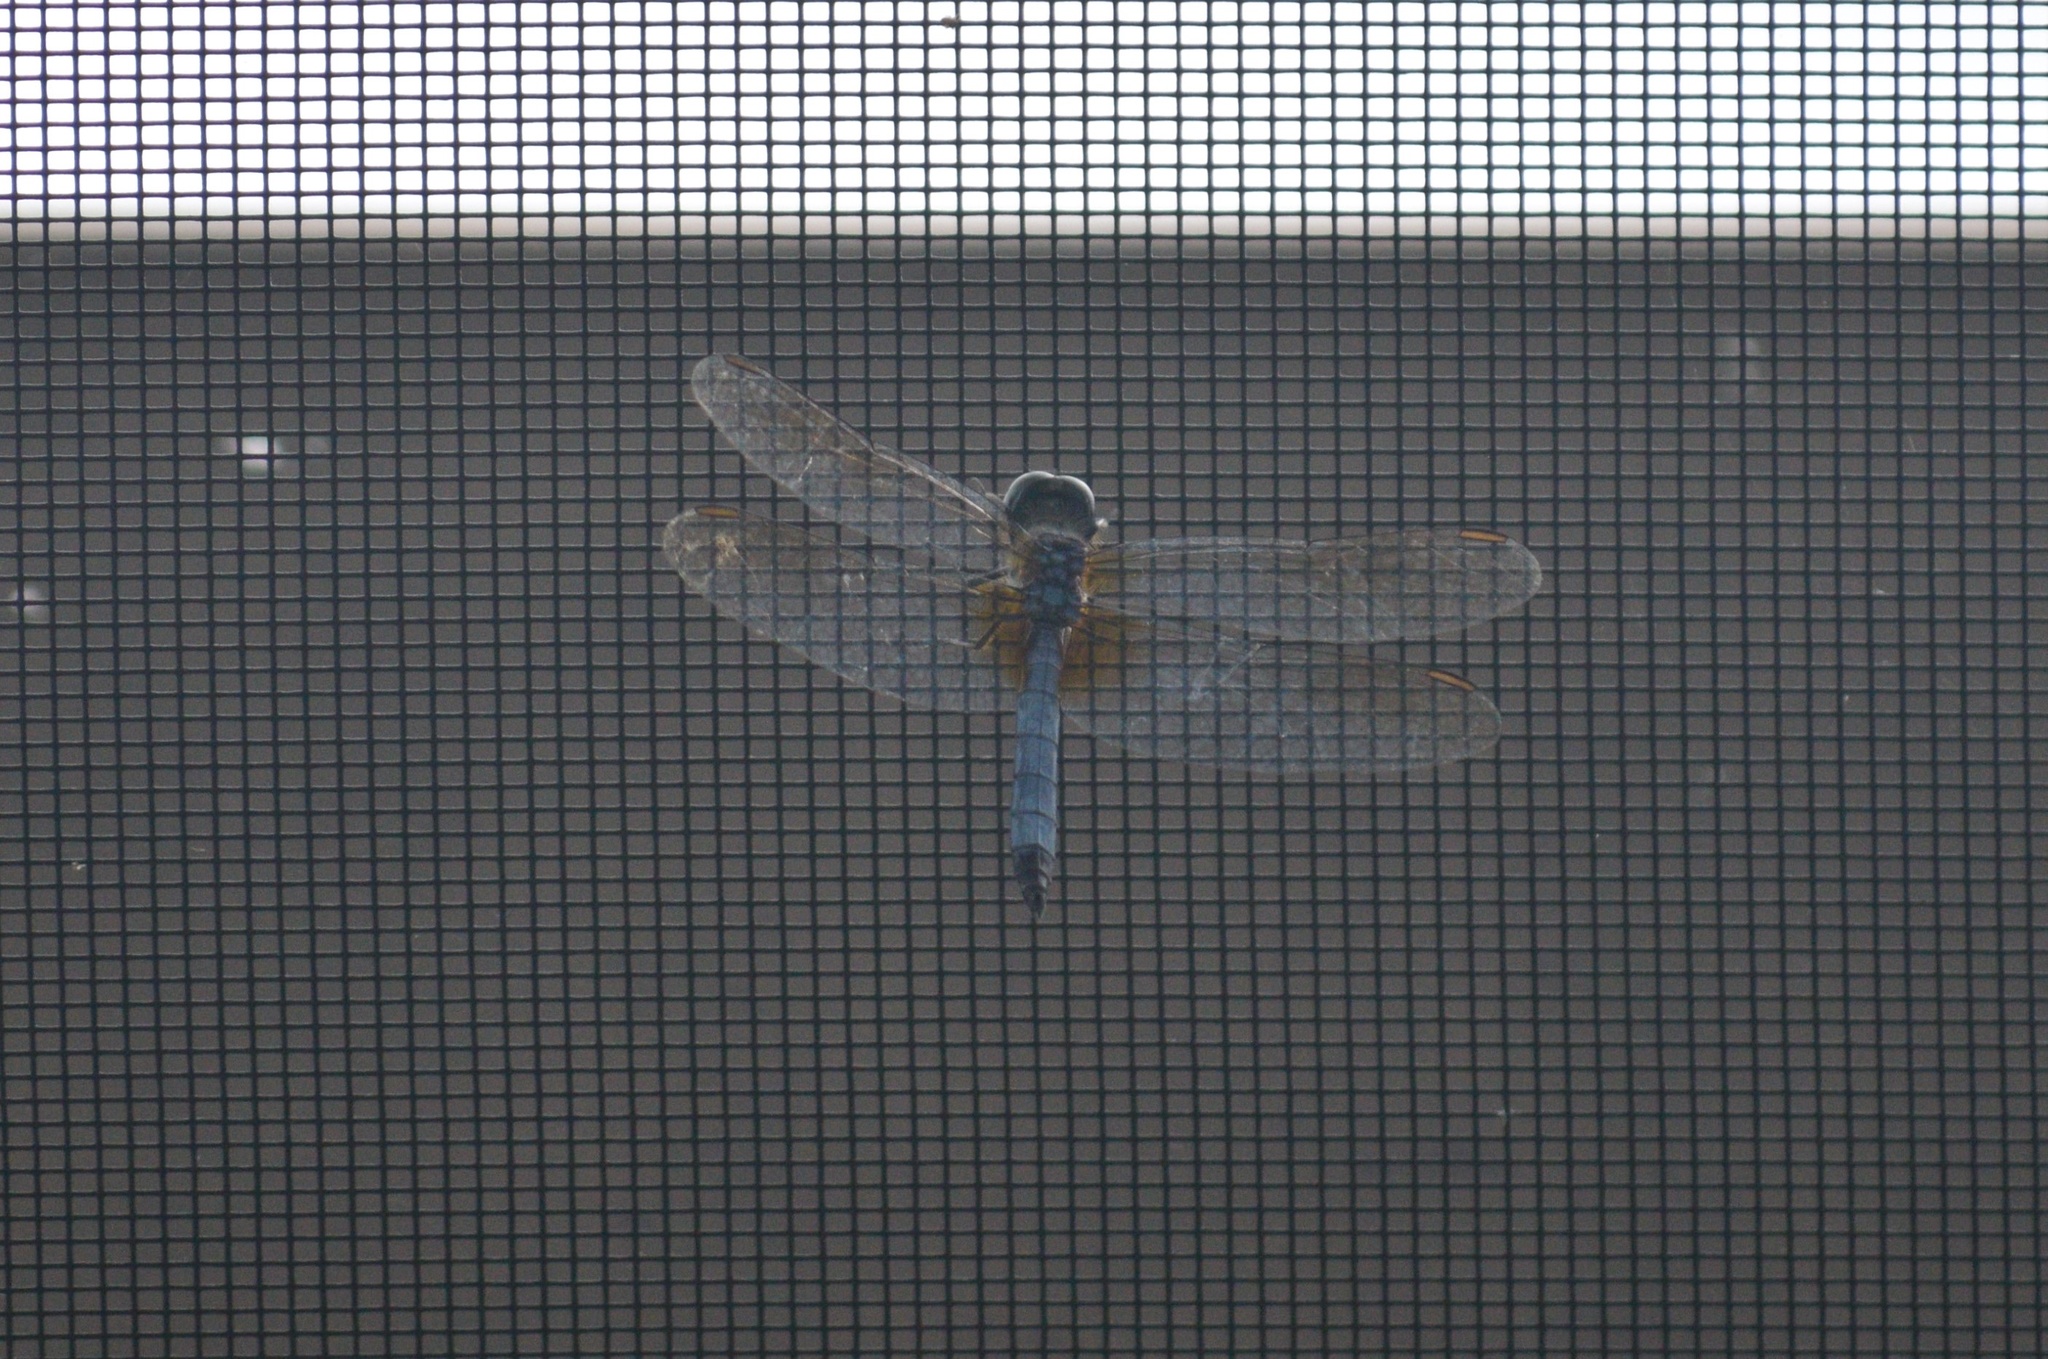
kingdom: Animalia
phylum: Arthropoda
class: Insecta
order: Odonata
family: Libellulidae
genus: Pachydiplax
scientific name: Pachydiplax longipennis
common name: Blue dasher
